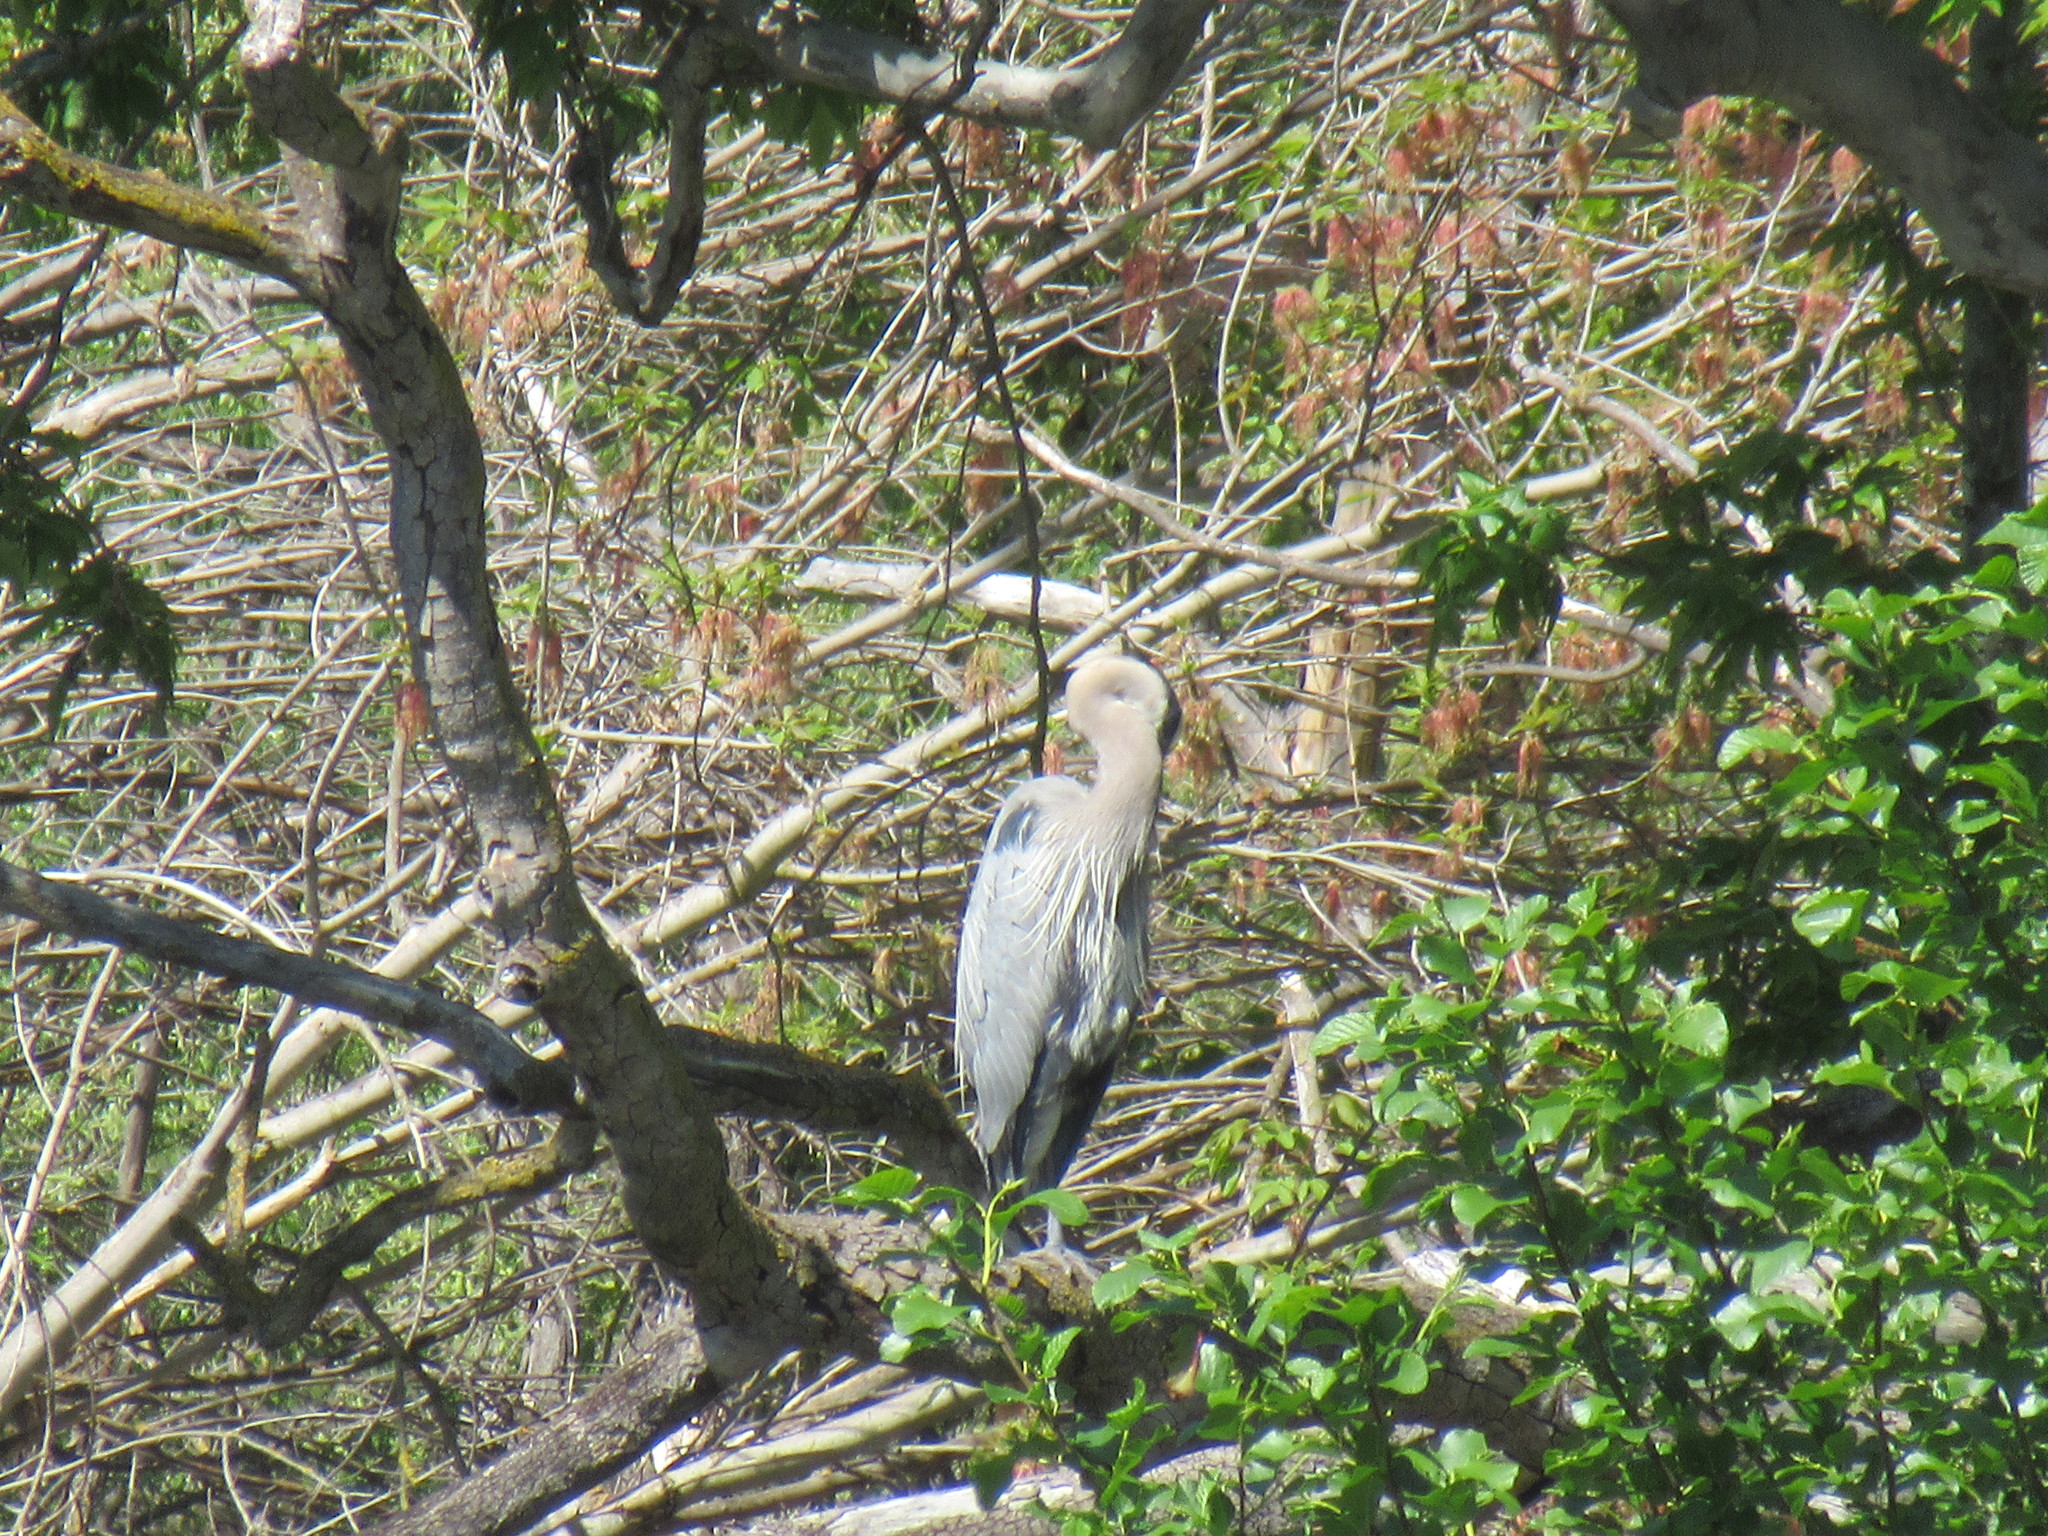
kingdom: Animalia
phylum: Chordata
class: Aves
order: Pelecaniformes
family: Ardeidae
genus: Ardea
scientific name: Ardea herodias
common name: Great blue heron
